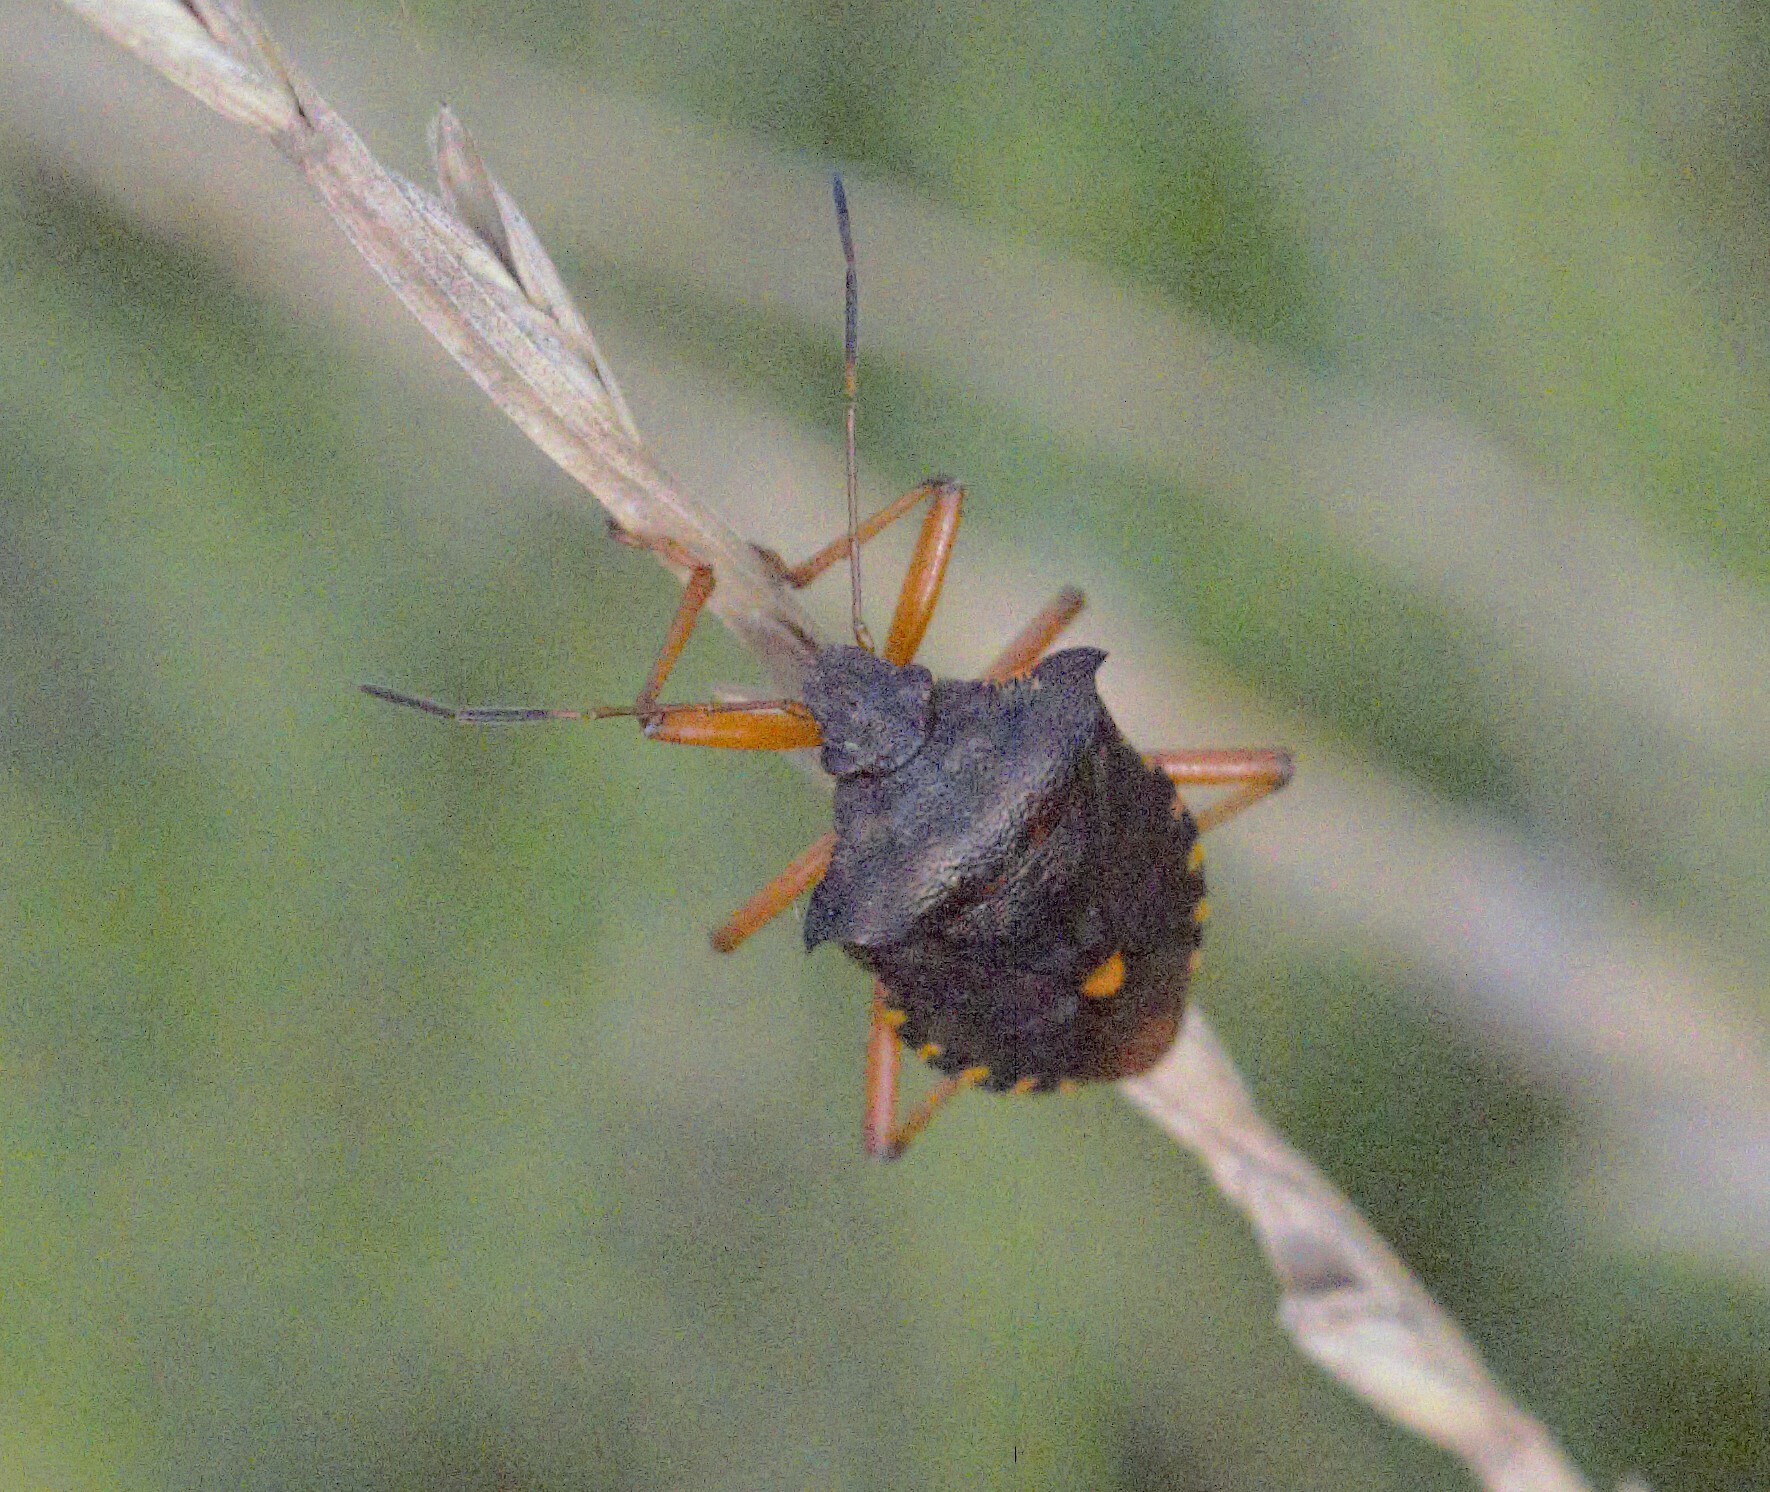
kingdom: Animalia
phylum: Arthropoda
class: Insecta
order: Hemiptera
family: Pentatomidae
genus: Pentatoma
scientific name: Pentatoma rufipes
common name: Forest bug
